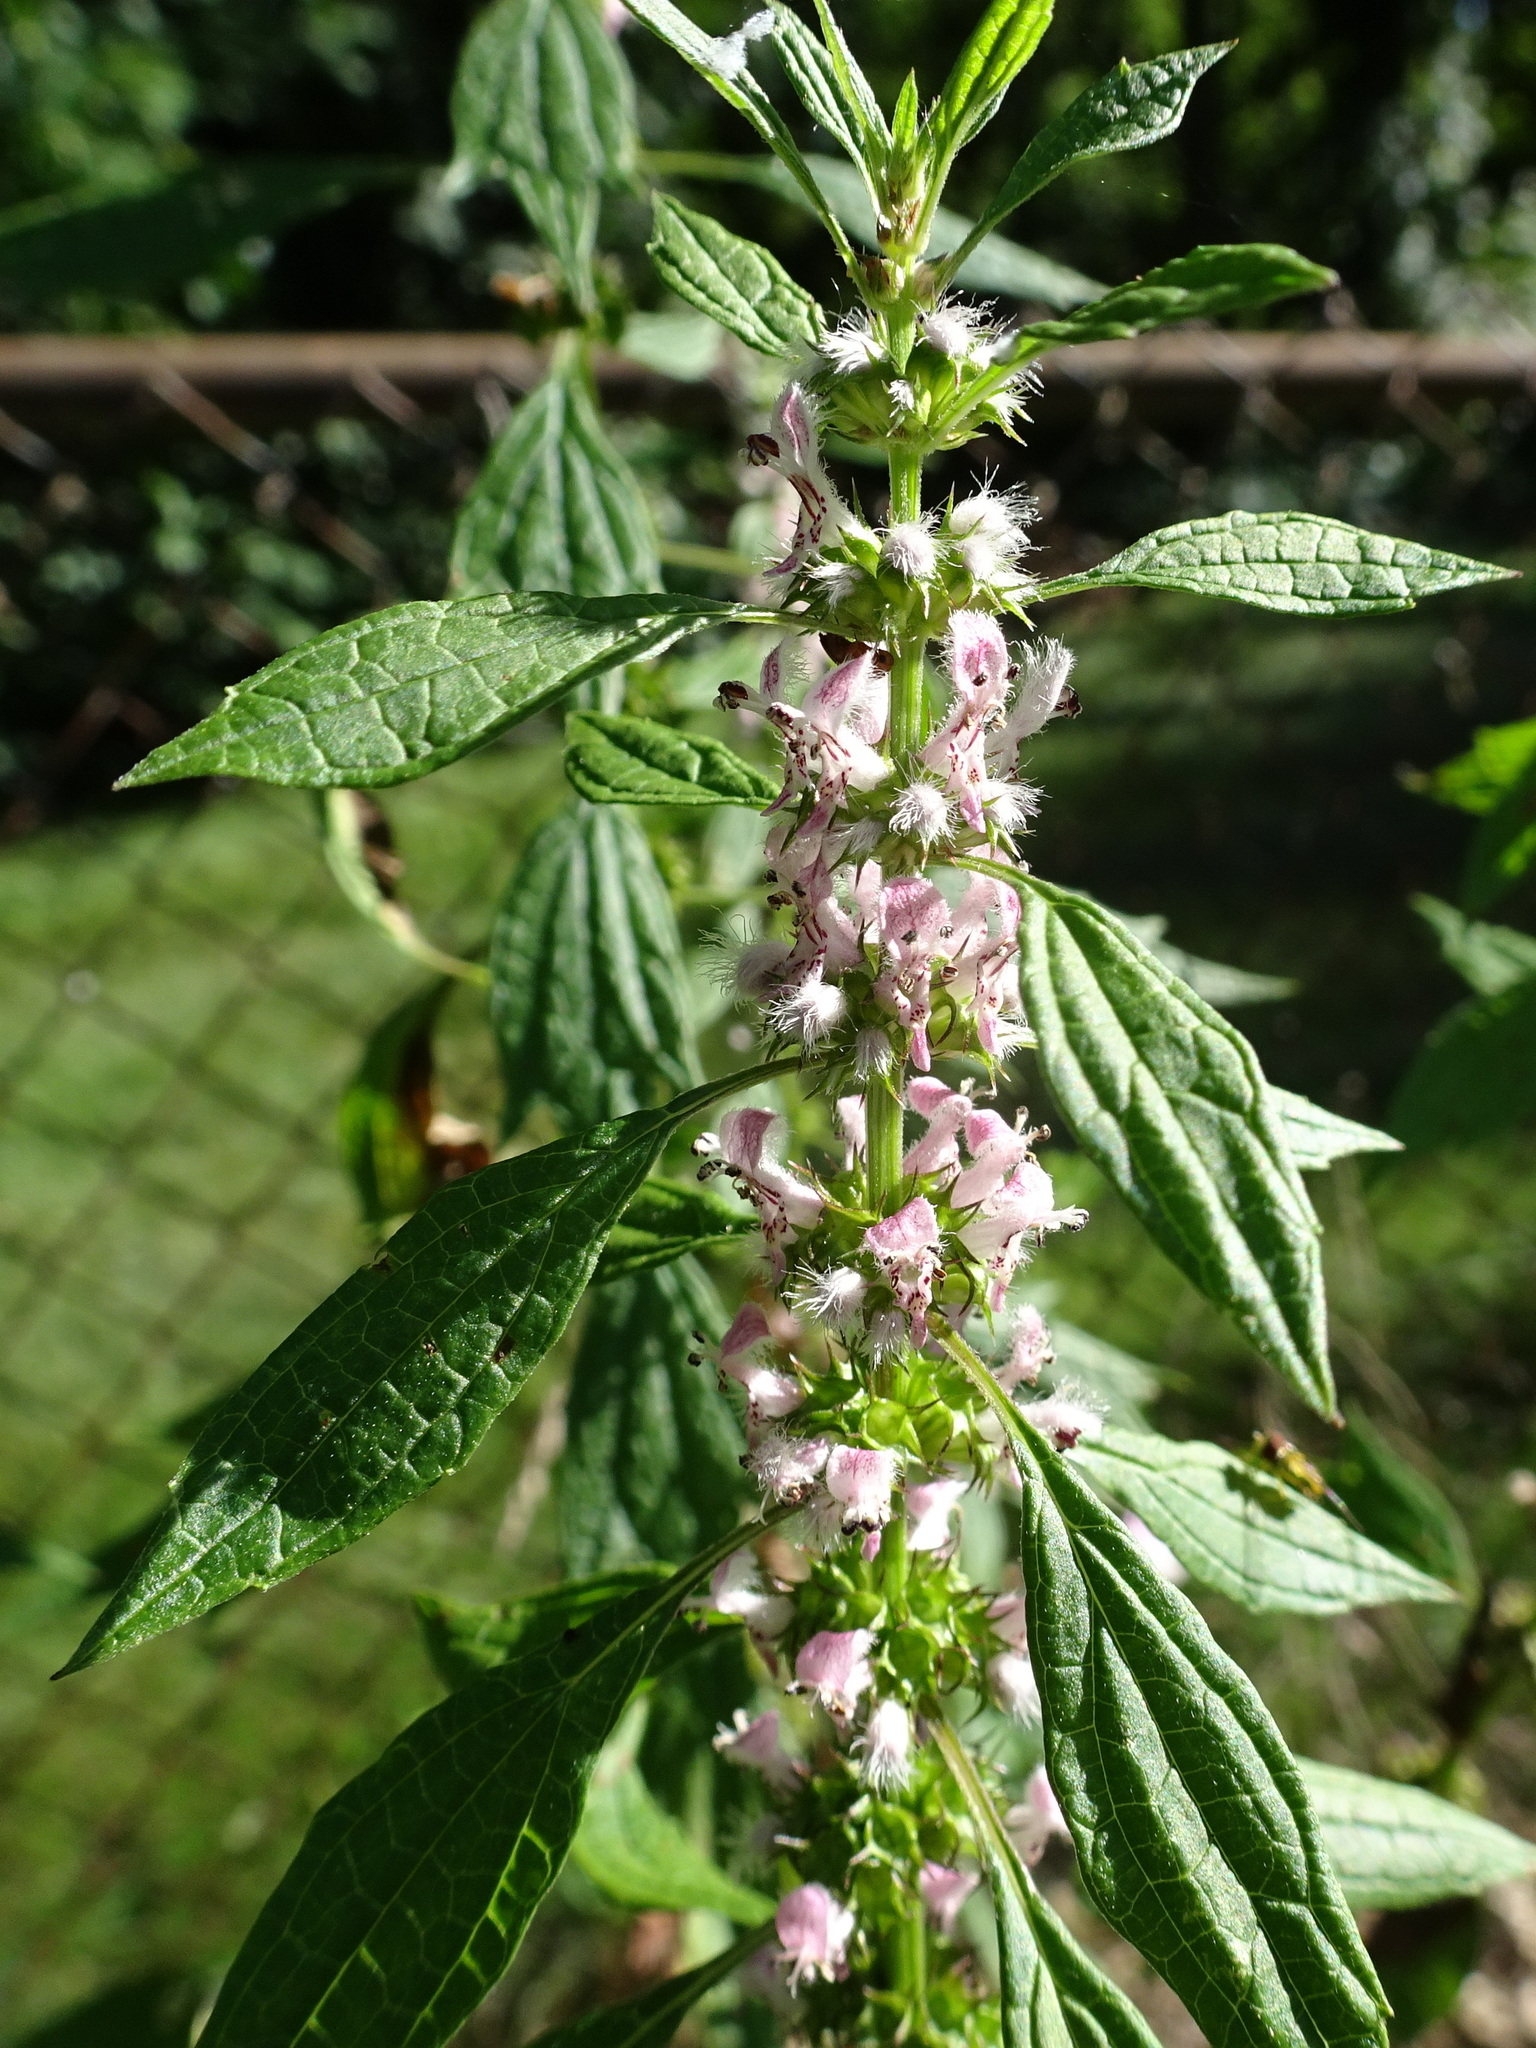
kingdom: Plantae
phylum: Tracheophyta
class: Magnoliopsida
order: Lamiales
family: Lamiaceae
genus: Leonurus
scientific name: Leonurus cardiaca
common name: Motherwort
